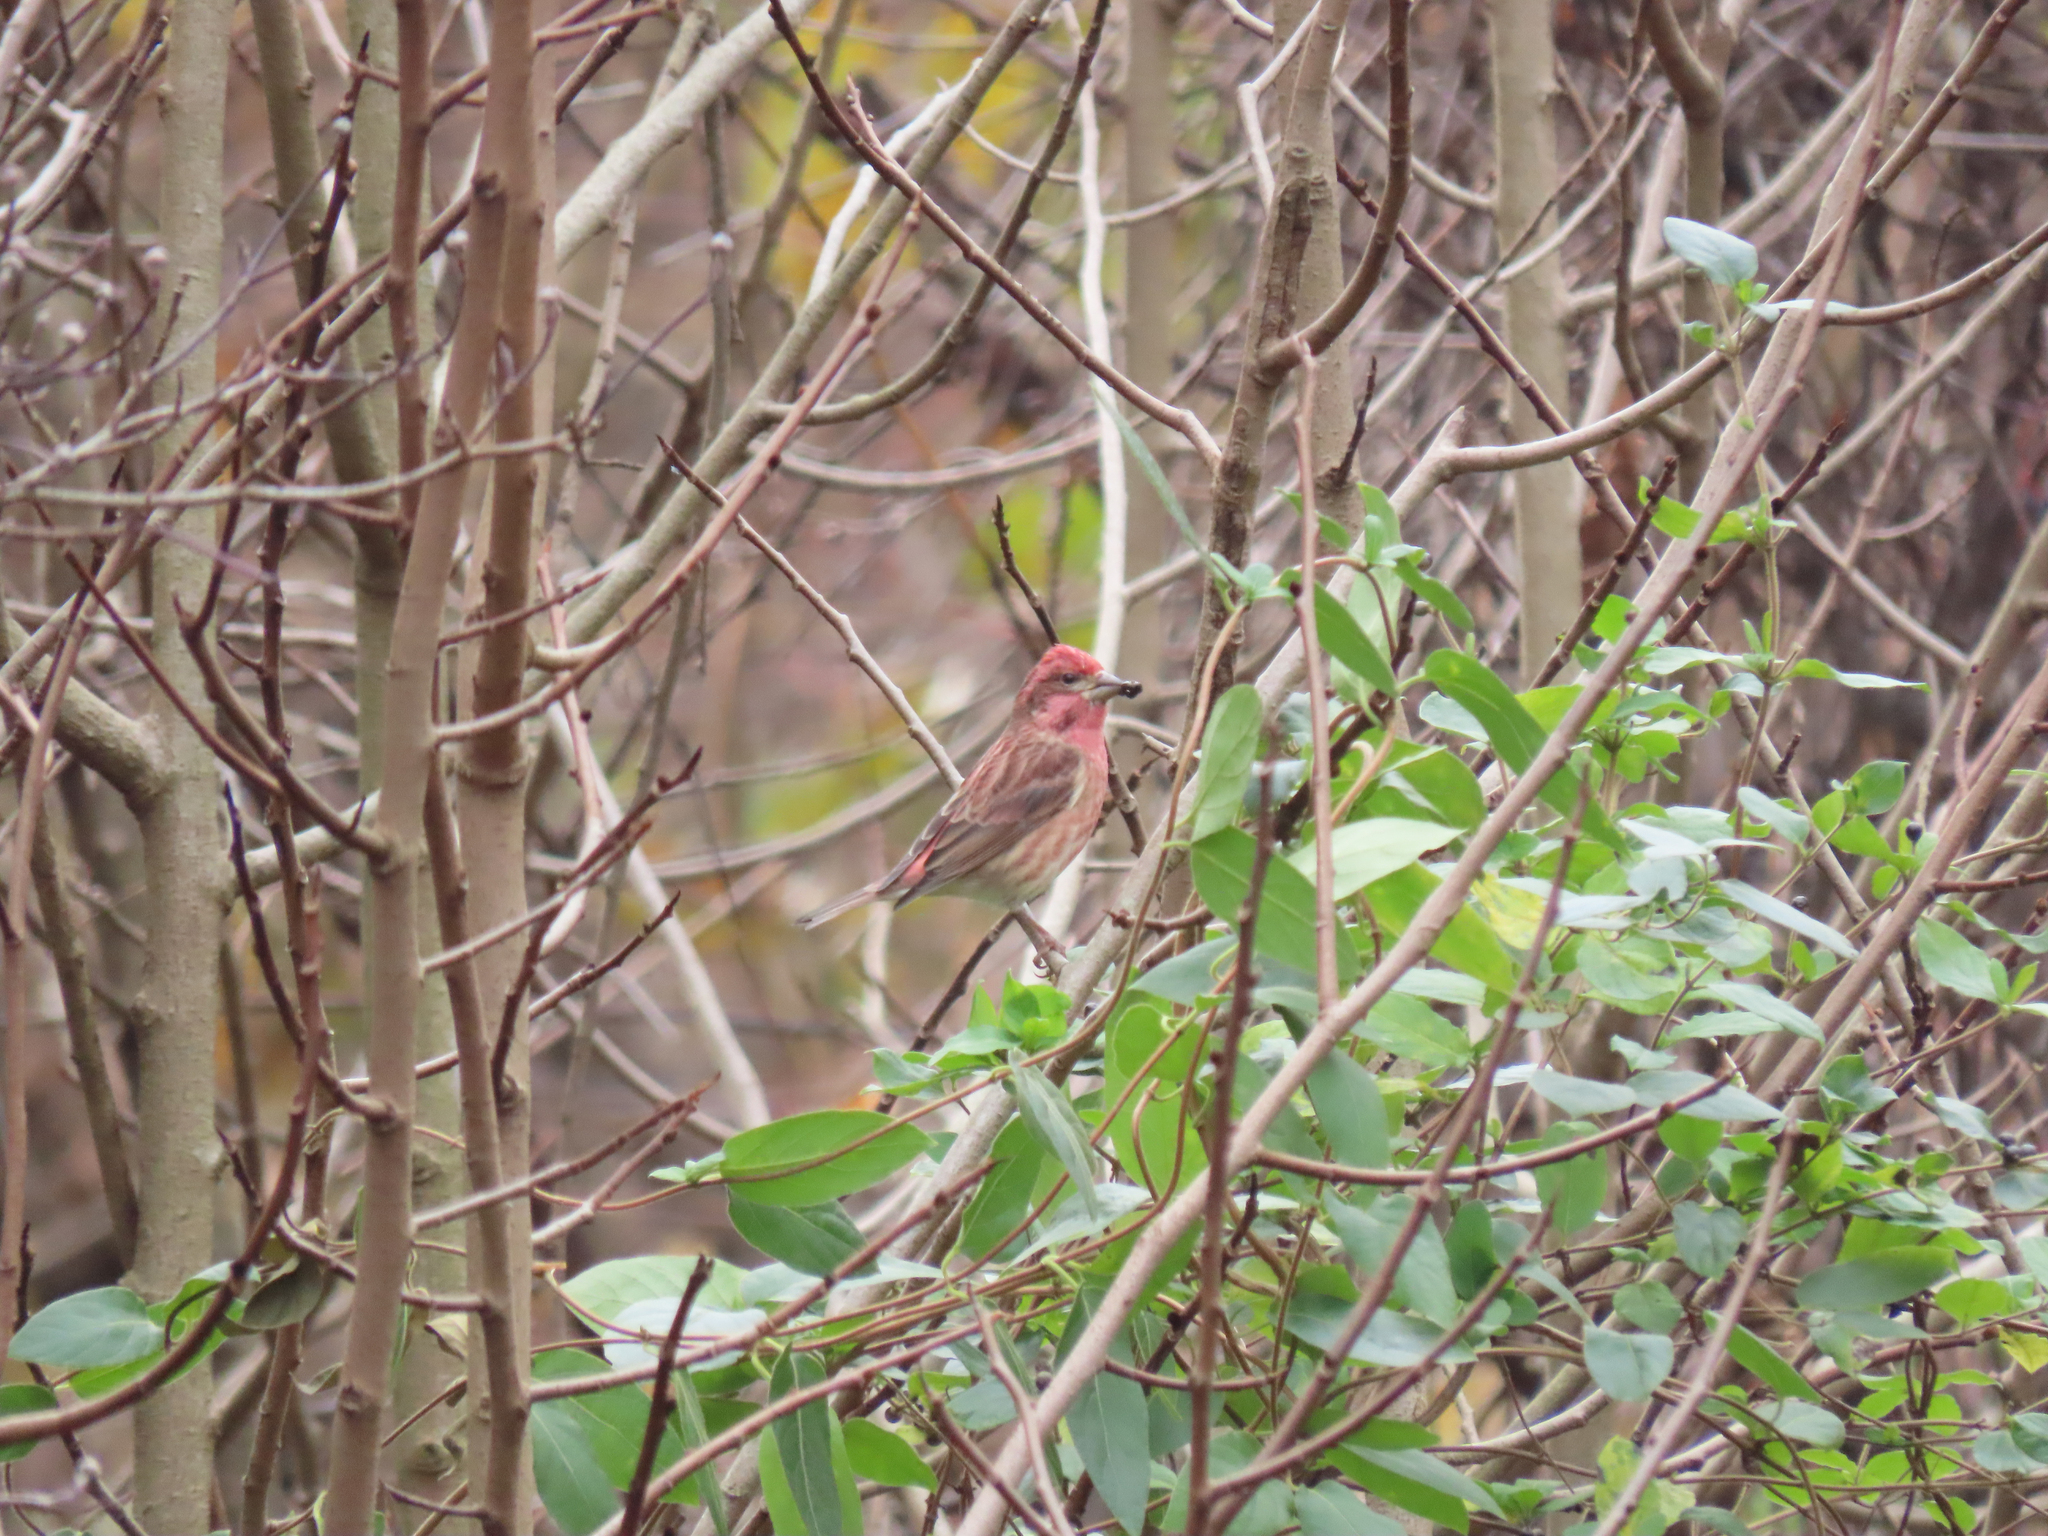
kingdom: Animalia
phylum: Chordata
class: Aves
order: Passeriformes
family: Fringillidae
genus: Haemorhous
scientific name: Haemorhous purpureus
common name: Purple finch
